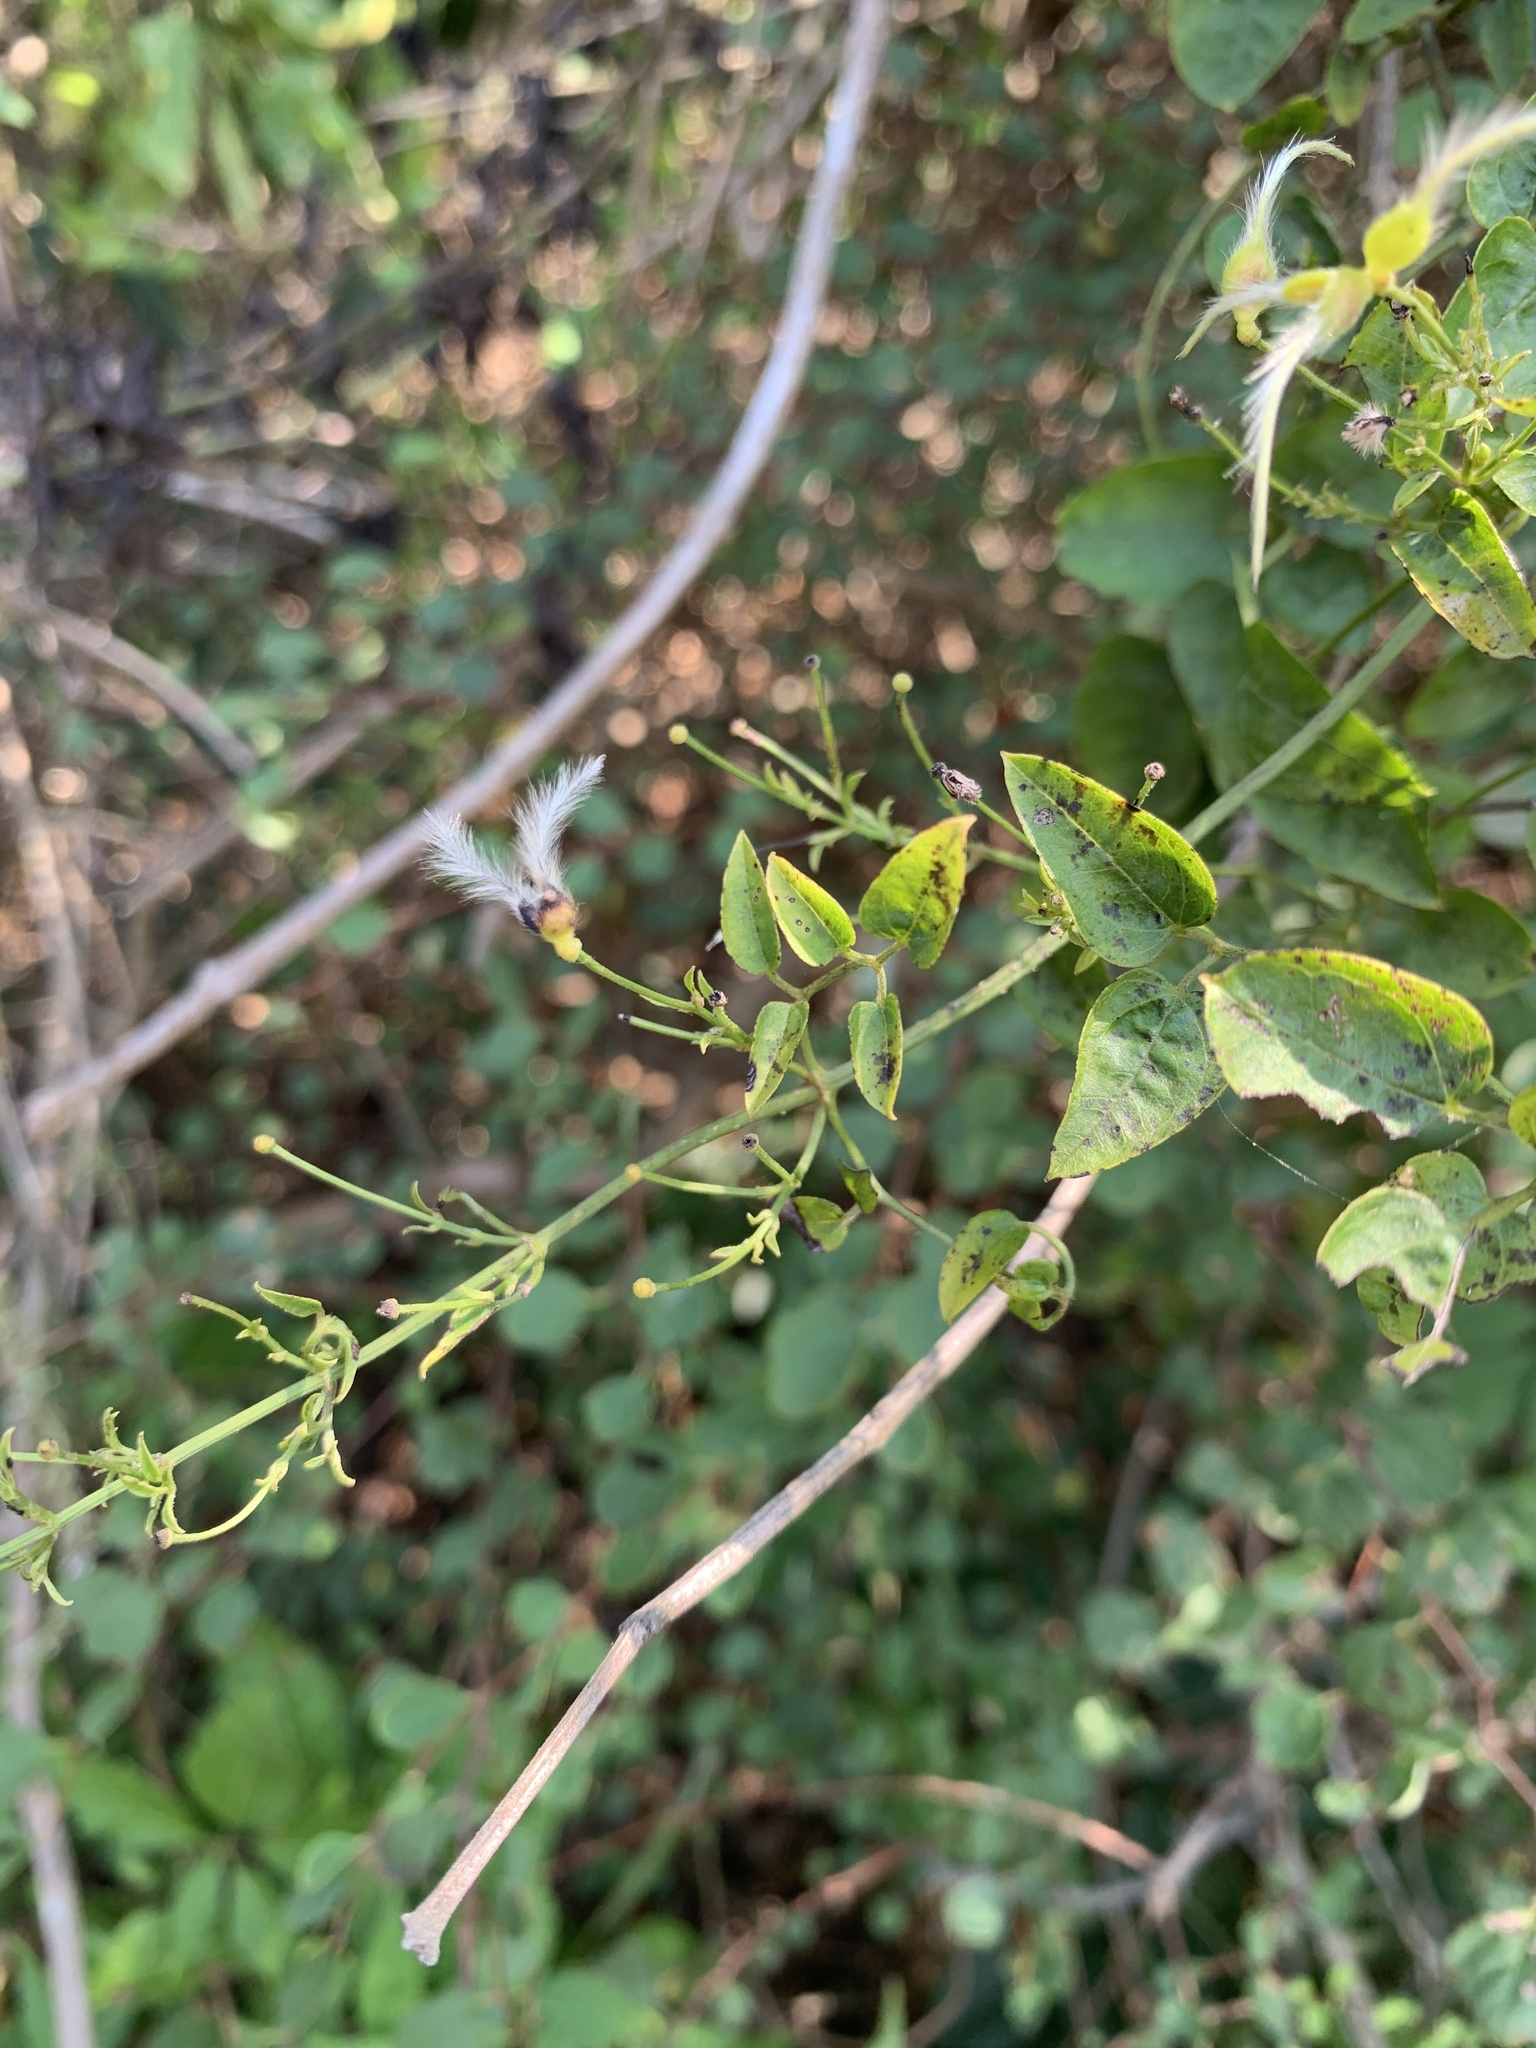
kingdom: Plantae
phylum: Tracheophyta
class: Magnoliopsida
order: Ranunculales
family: Ranunculaceae
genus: Clematis
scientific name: Clematis chinensis
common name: Chinese clematis
